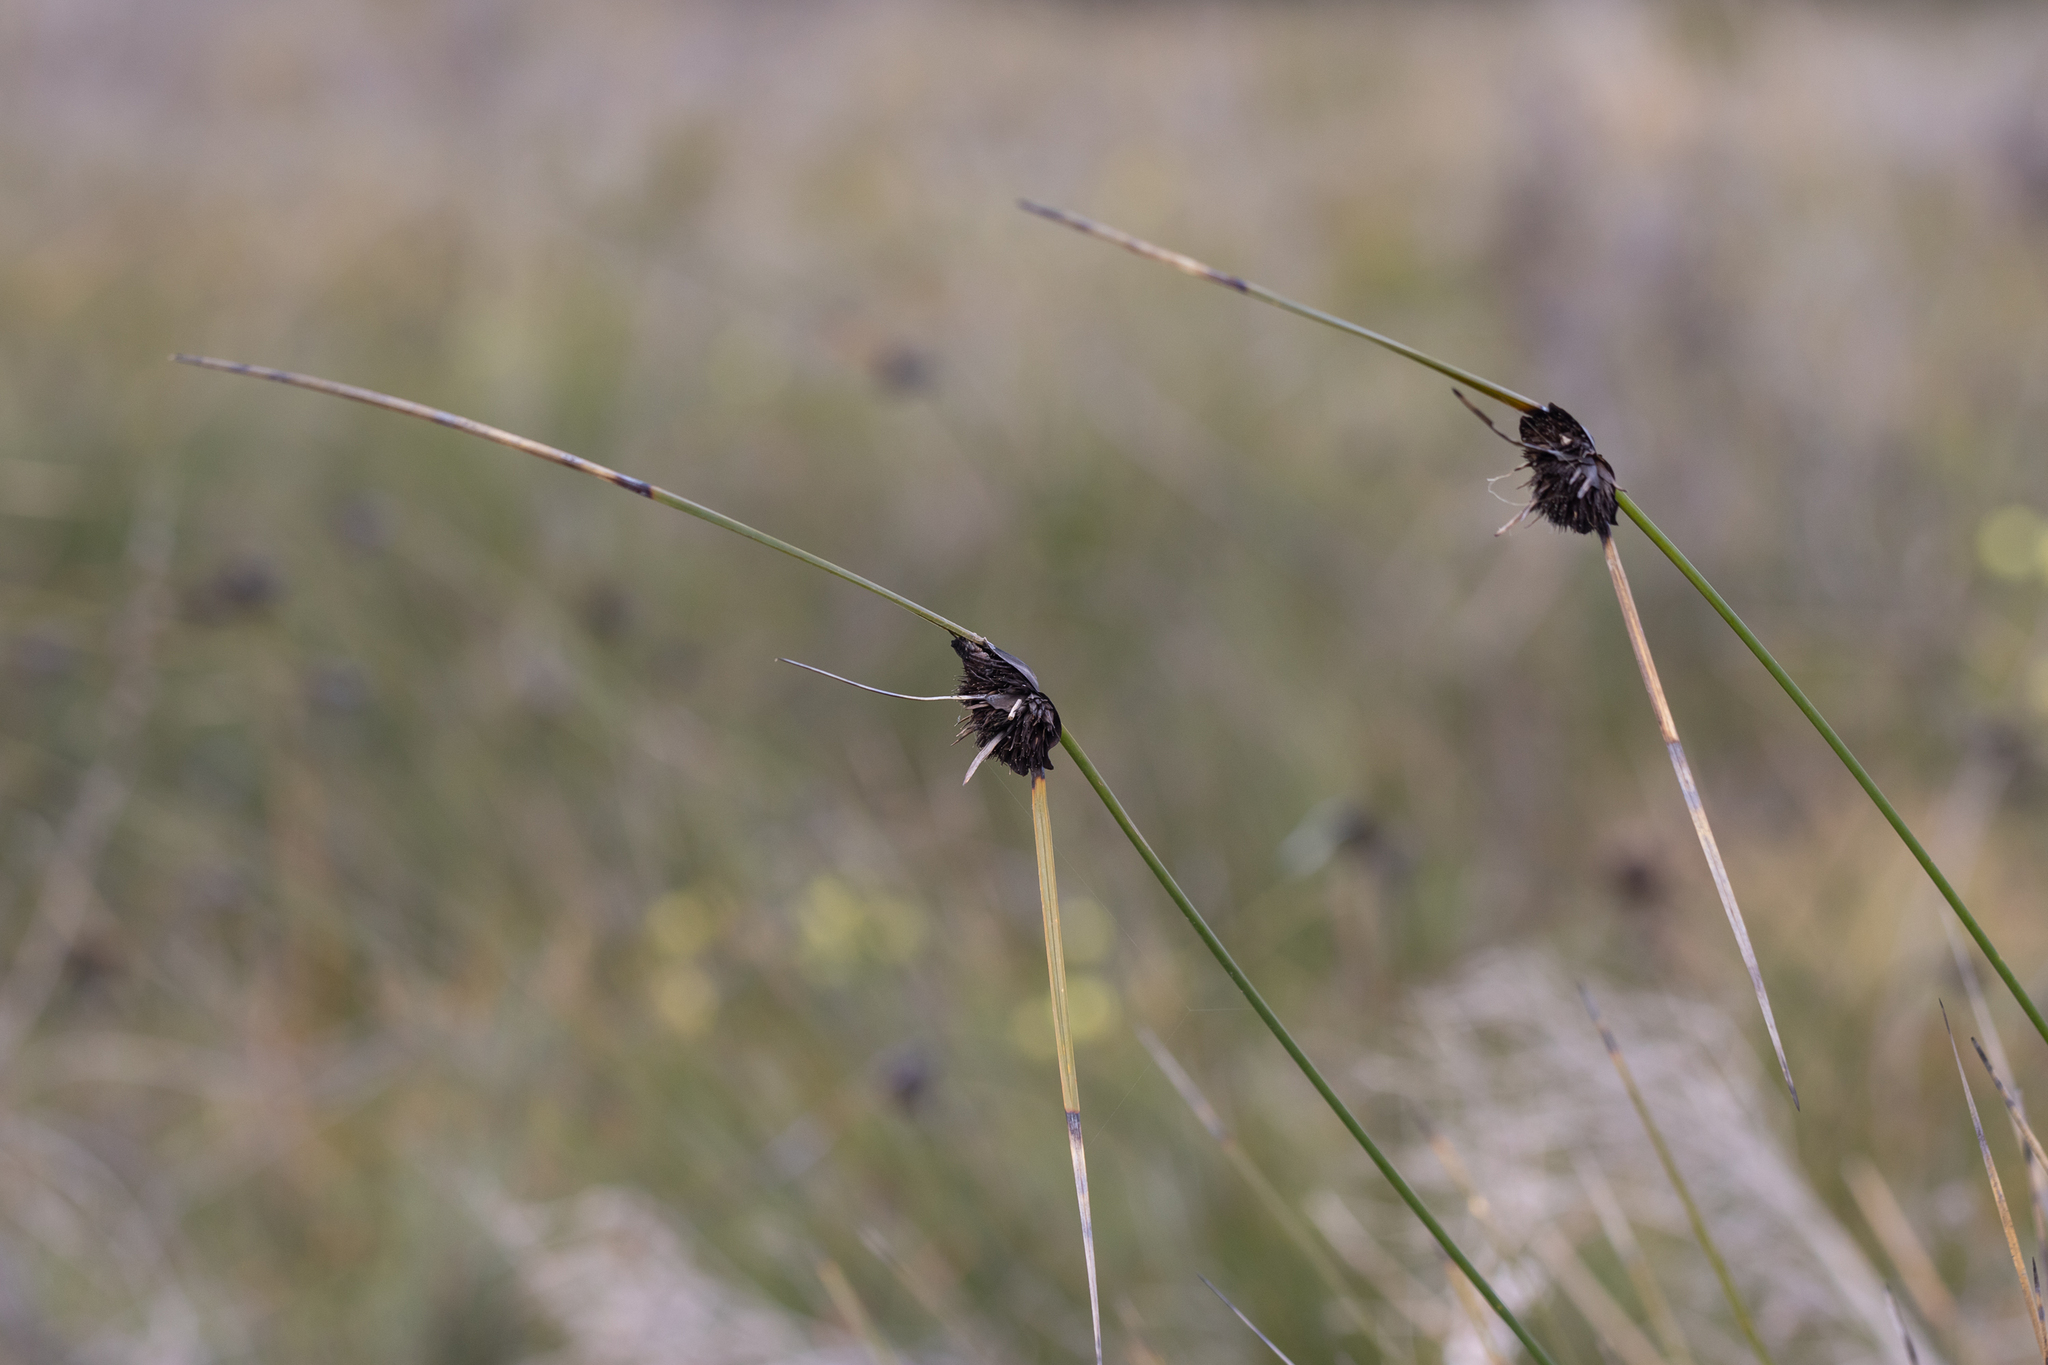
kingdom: Plantae
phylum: Tracheophyta
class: Liliopsida
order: Poales
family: Cyperaceae
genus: Mesomelaena
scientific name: Mesomelaena tetragona
